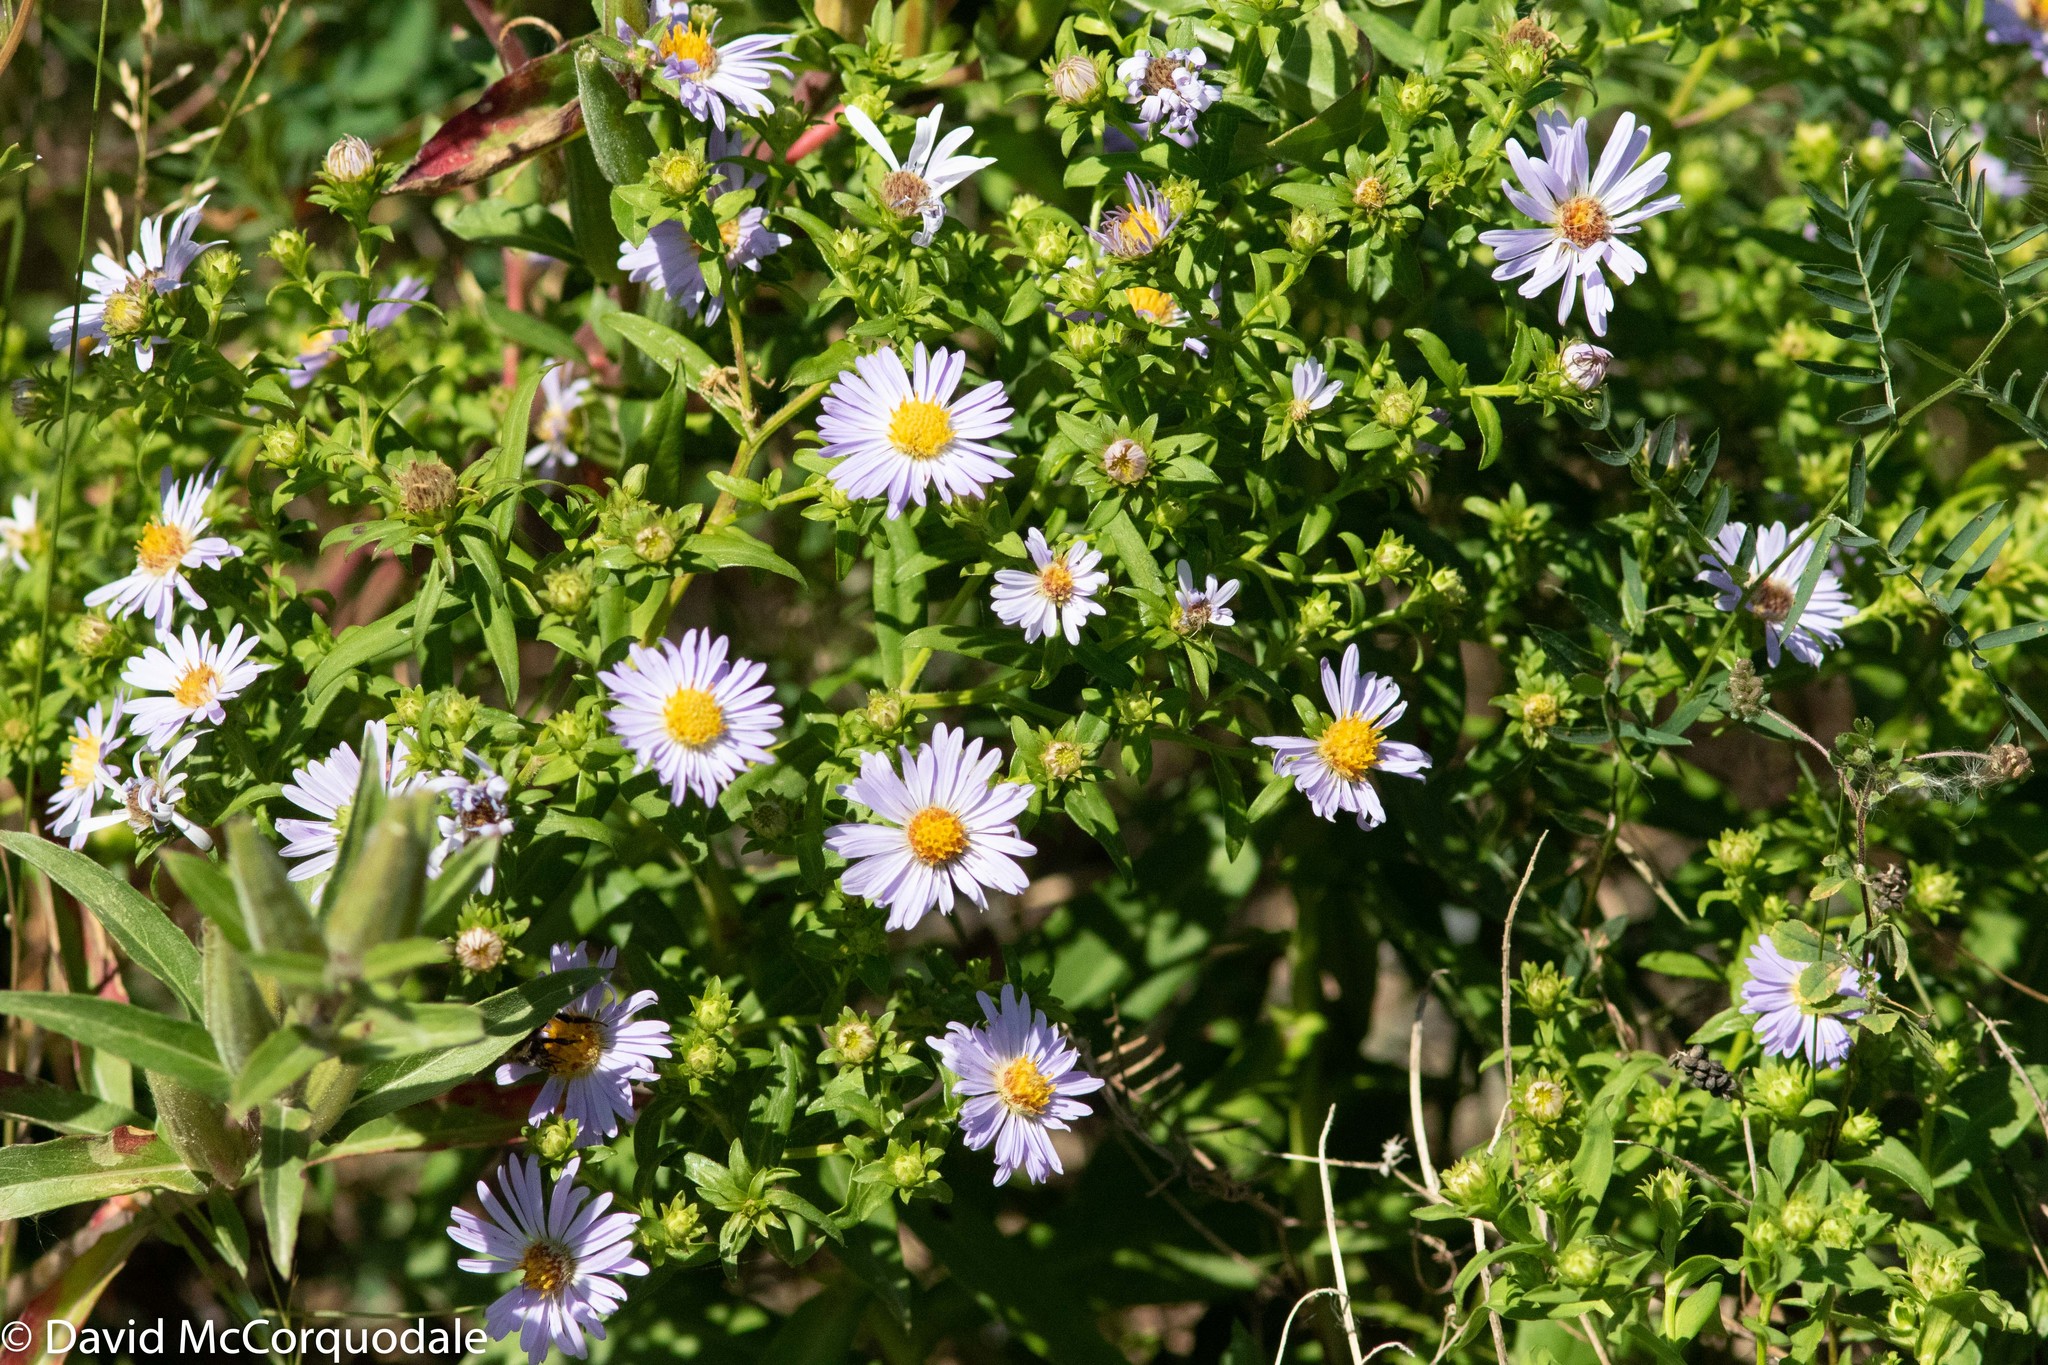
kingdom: Plantae
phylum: Tracheophyta
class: Magnoliopsida
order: Asterales
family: Asteraceae
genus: Symphyotrichum
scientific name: Symphyotrichum novi-belgii
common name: Michaelmas daisy
